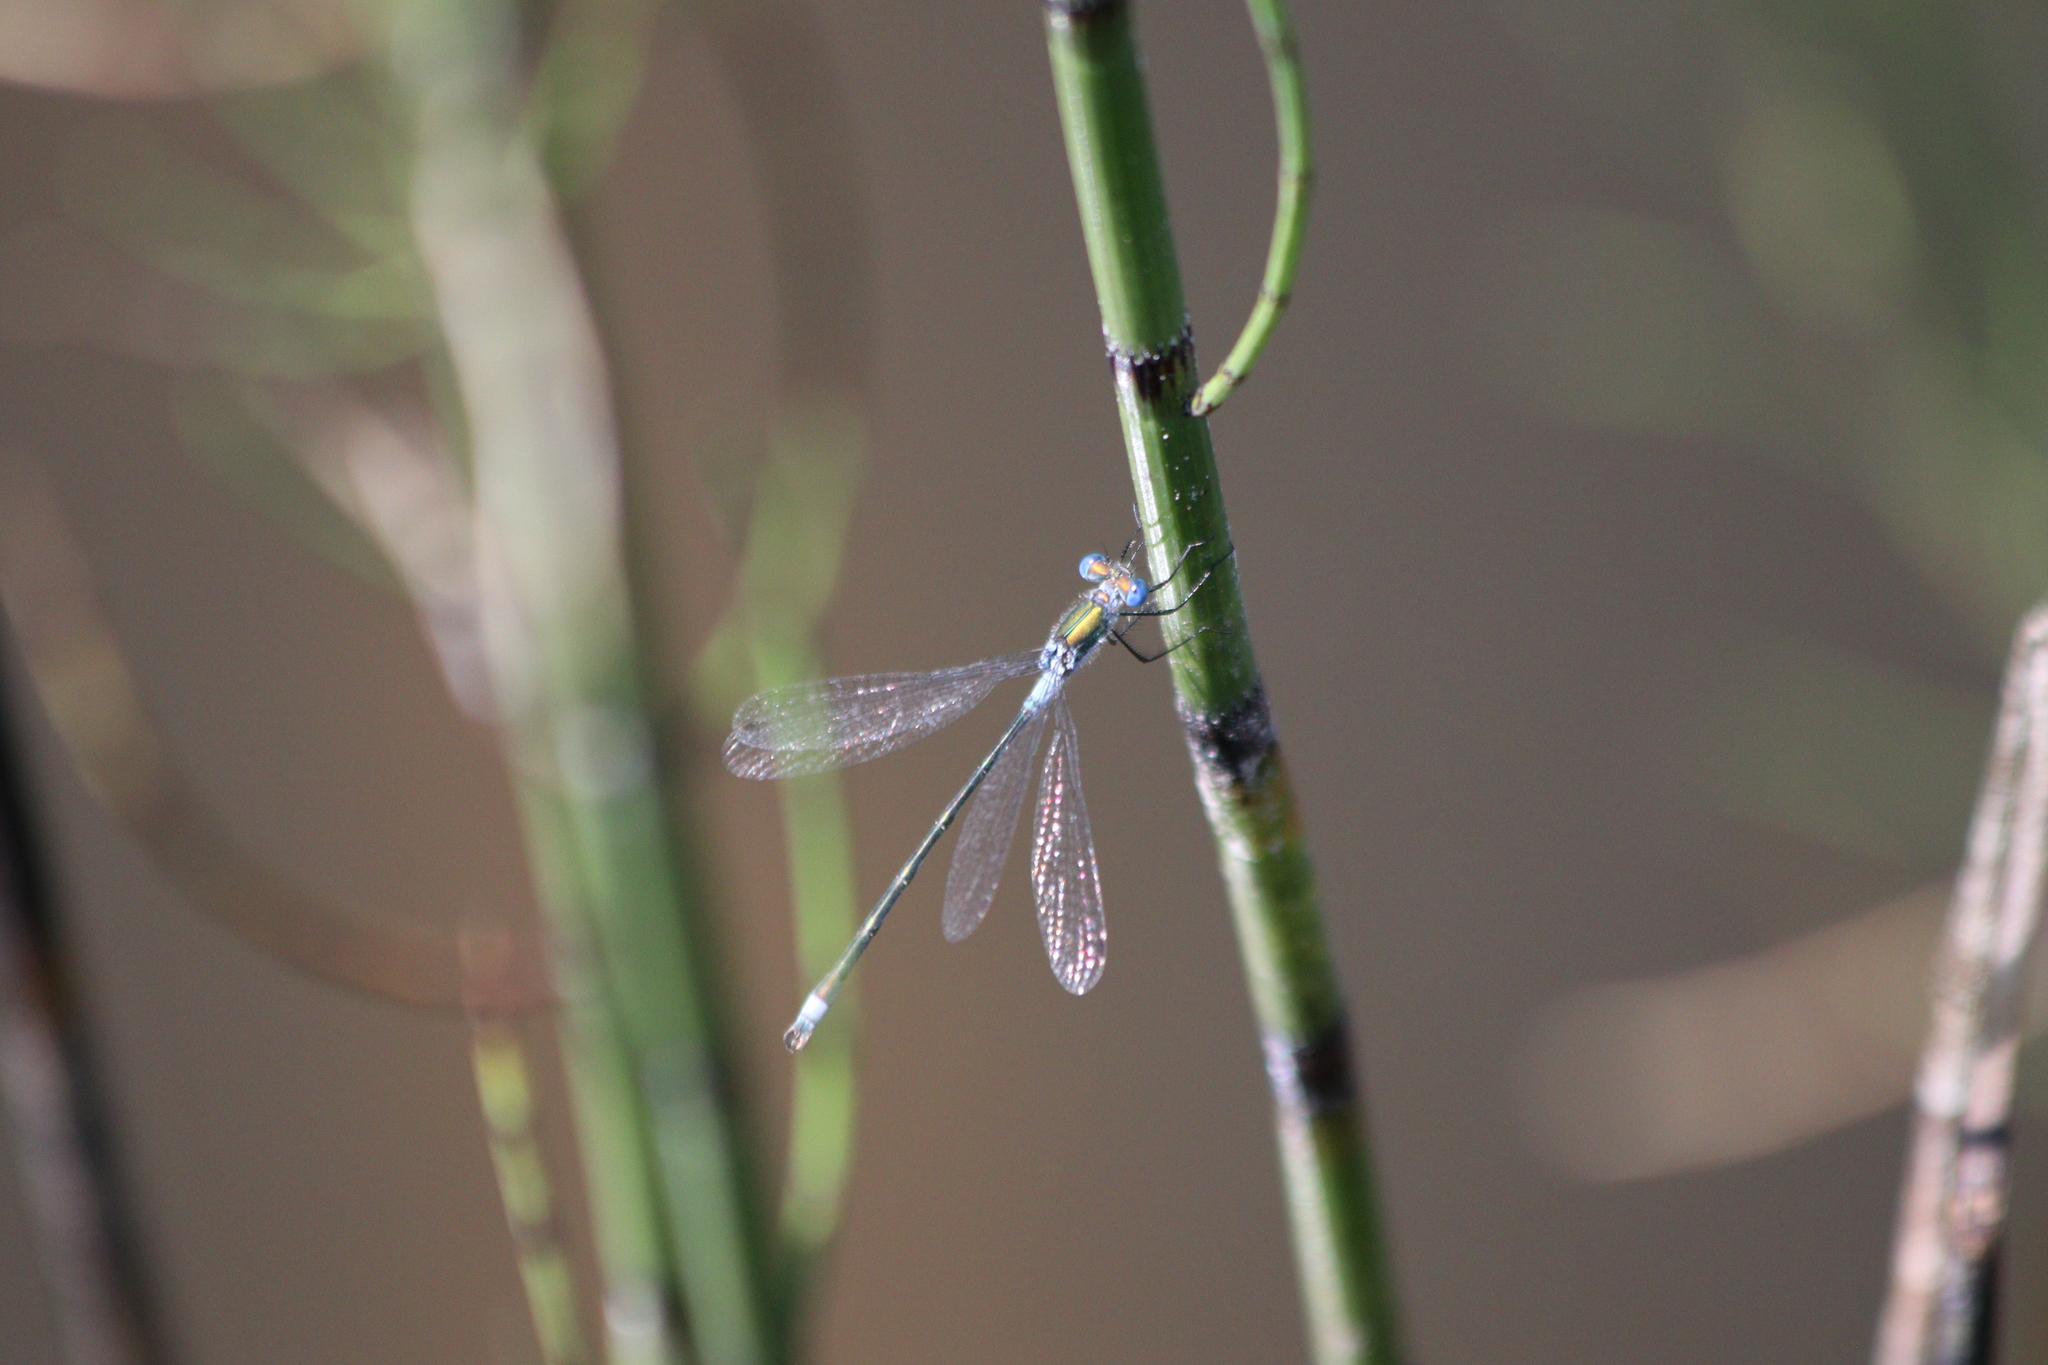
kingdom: Animalia
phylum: Arthropoda
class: Insecta
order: Odonata
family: Lestidae
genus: Lestes
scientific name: Lestes sponsa
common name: Common spreadwing
